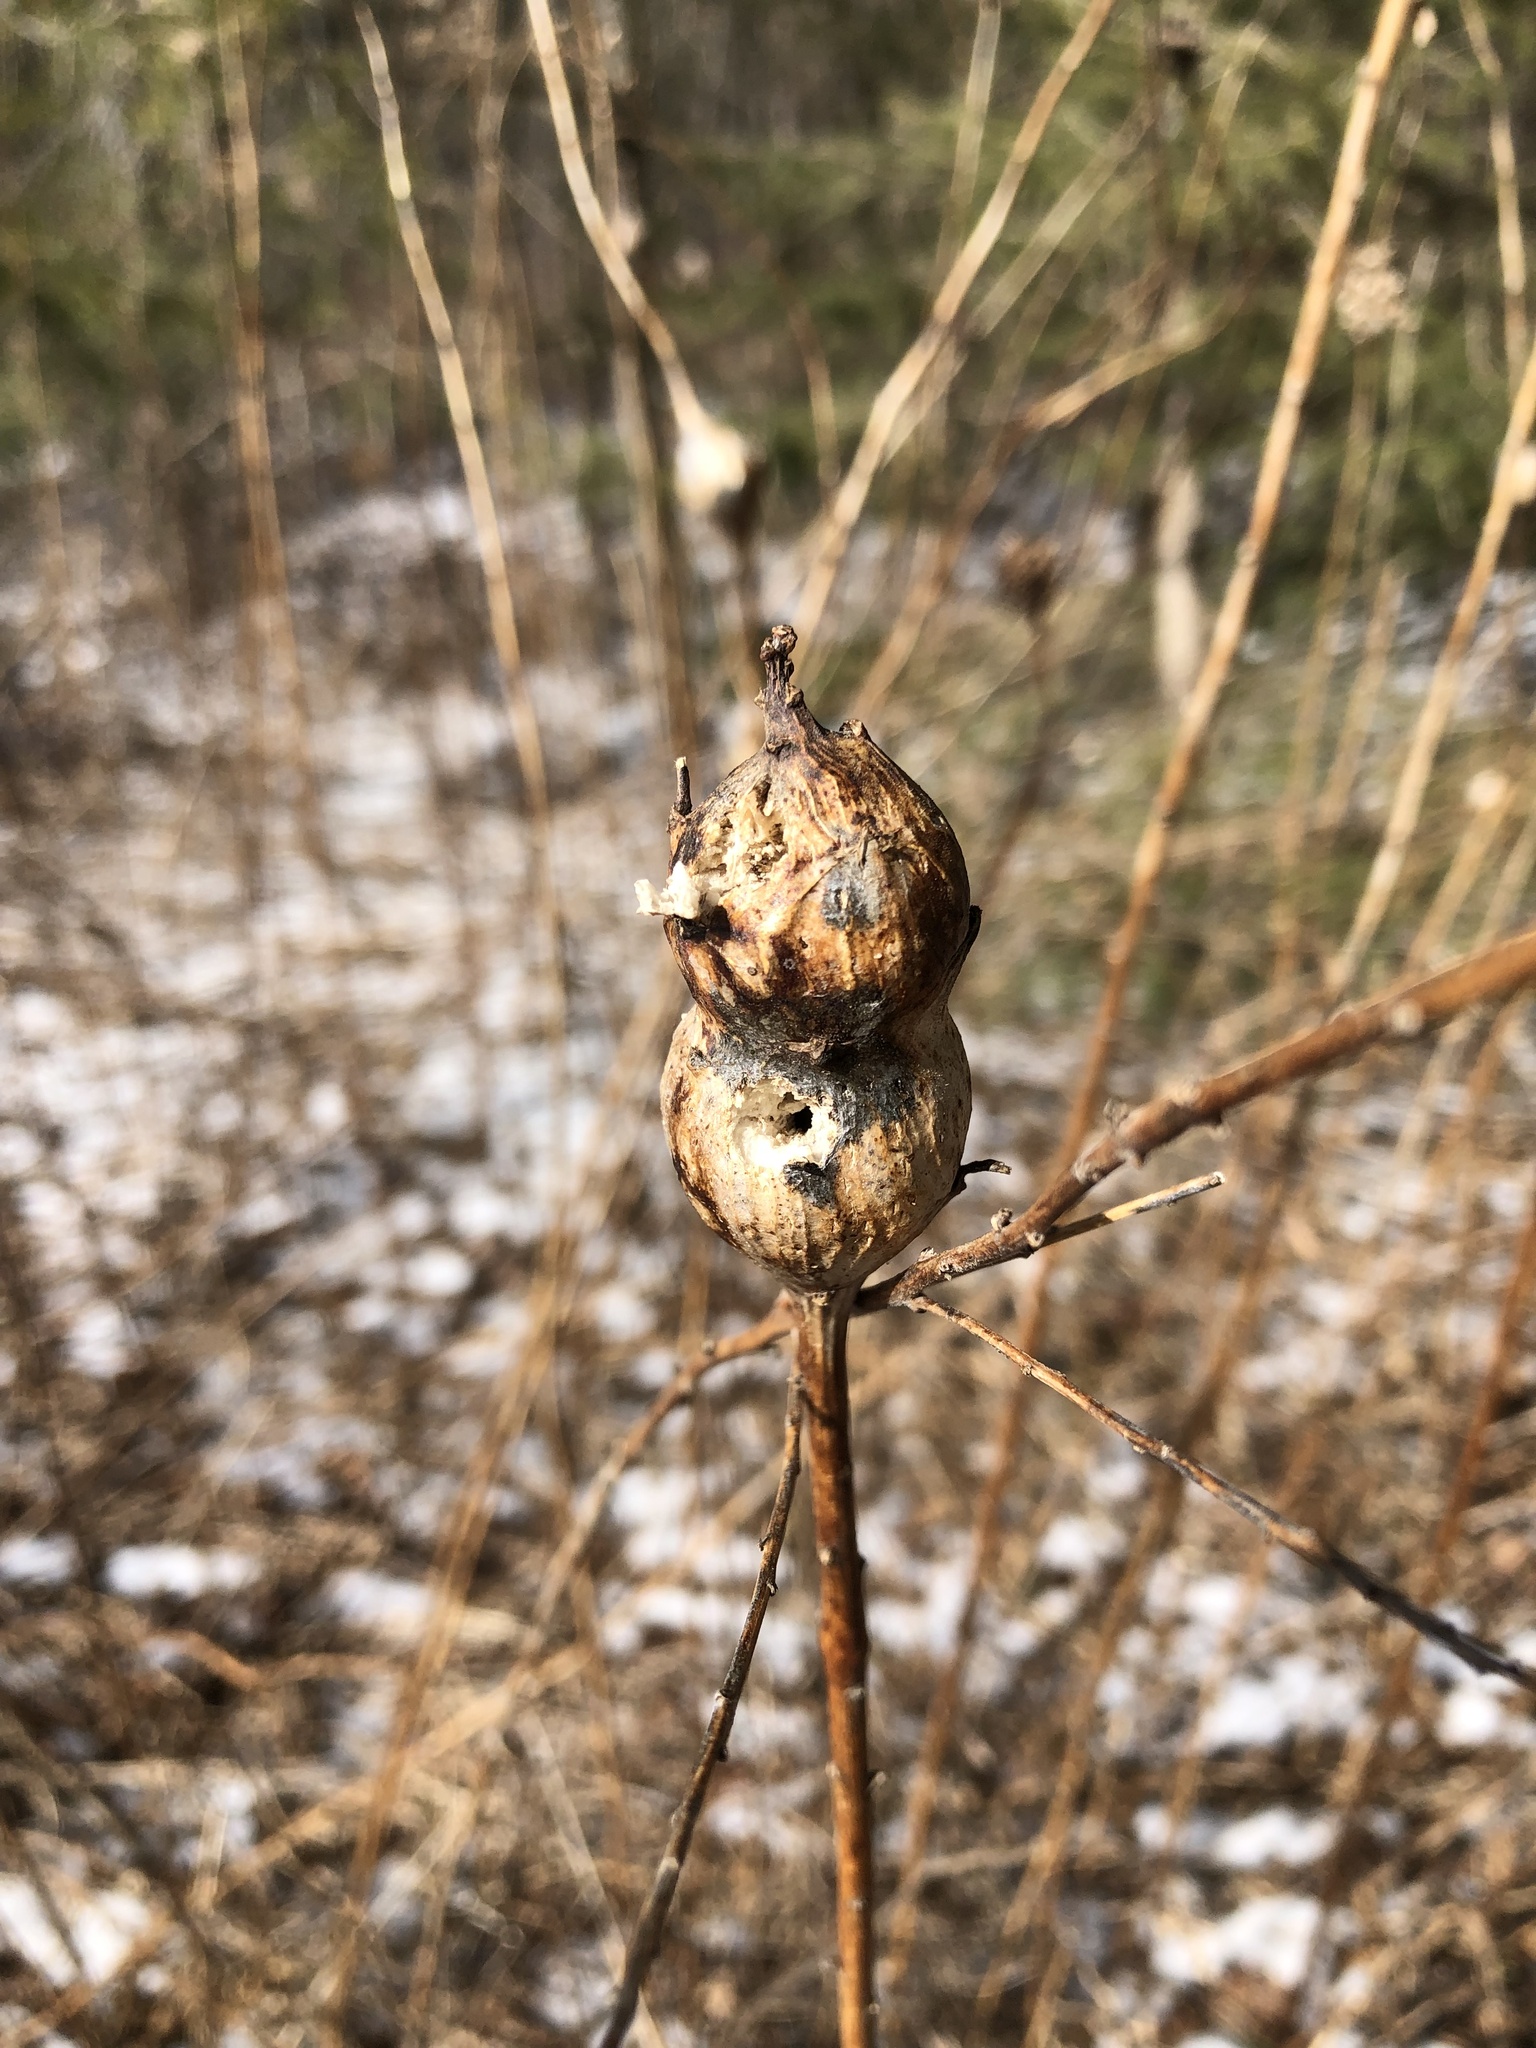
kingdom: Animalia
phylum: Arthropoda
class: Insecta
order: Diptera
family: Tephritidae
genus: Eurosta
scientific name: Eurosta solidaginis
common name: Goldenrod gall fly
